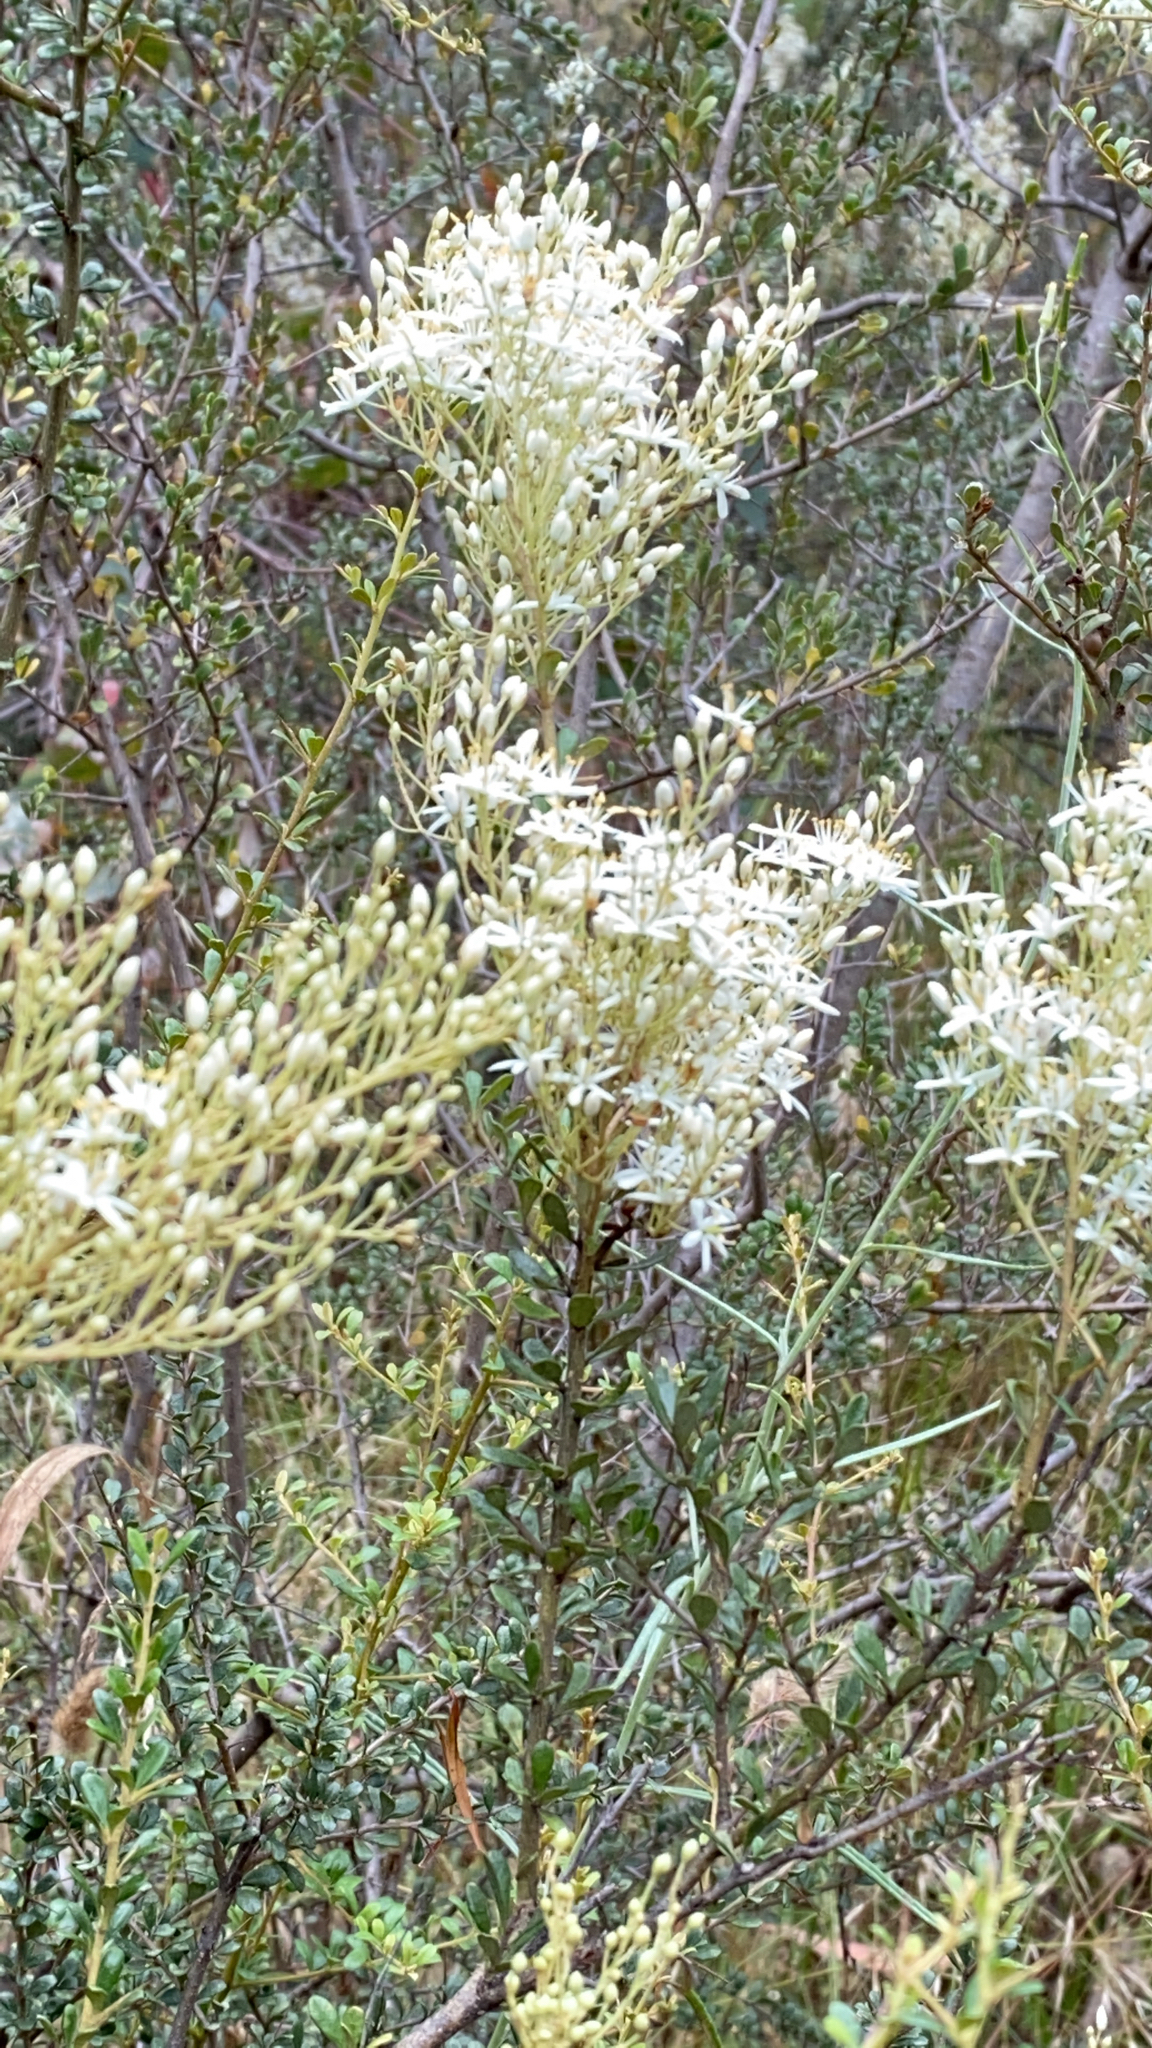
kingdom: Plantae
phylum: Tracheophyta
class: Magnoliopsida
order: Apiales
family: Pittosporaceae
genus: Bursaria
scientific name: Bursaria spinosa
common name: Australian blackthorn
